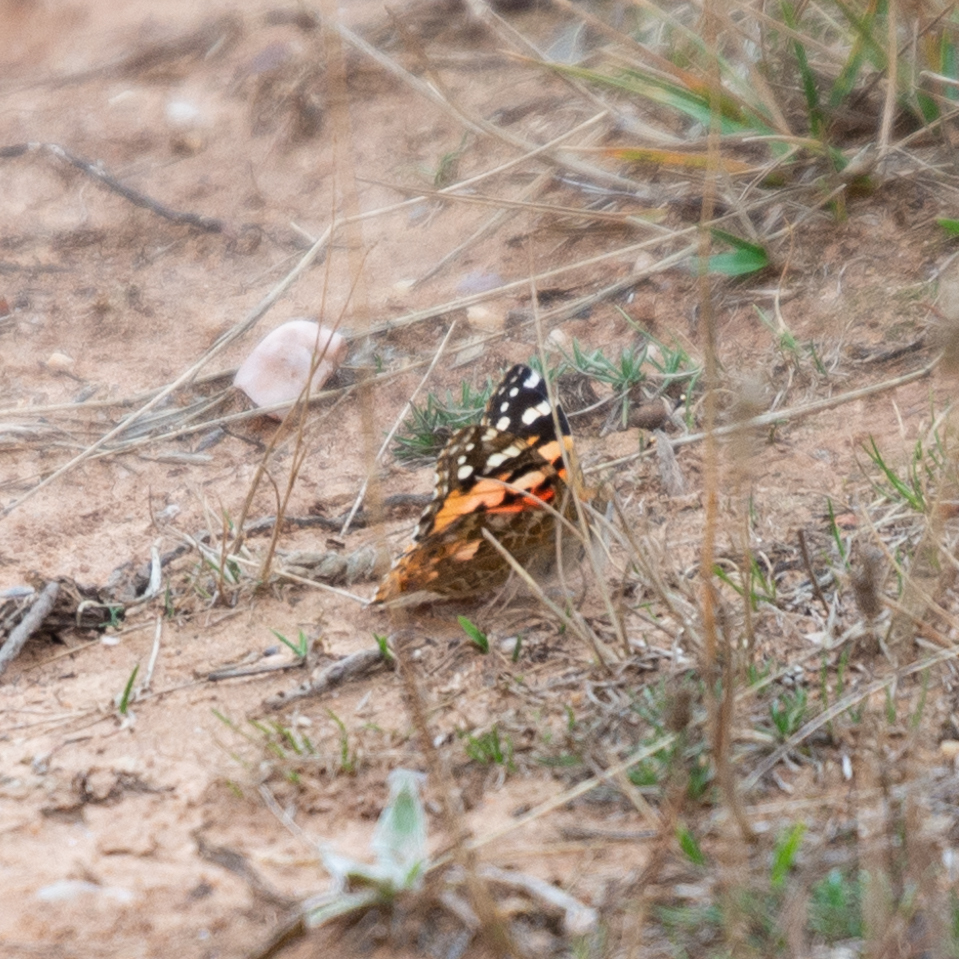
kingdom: Animalia
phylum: Arthropoda
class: Insecta
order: Lepidoptera
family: Nymphalidae
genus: Vanessa
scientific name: Vanessa cardui
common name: Painted lady
